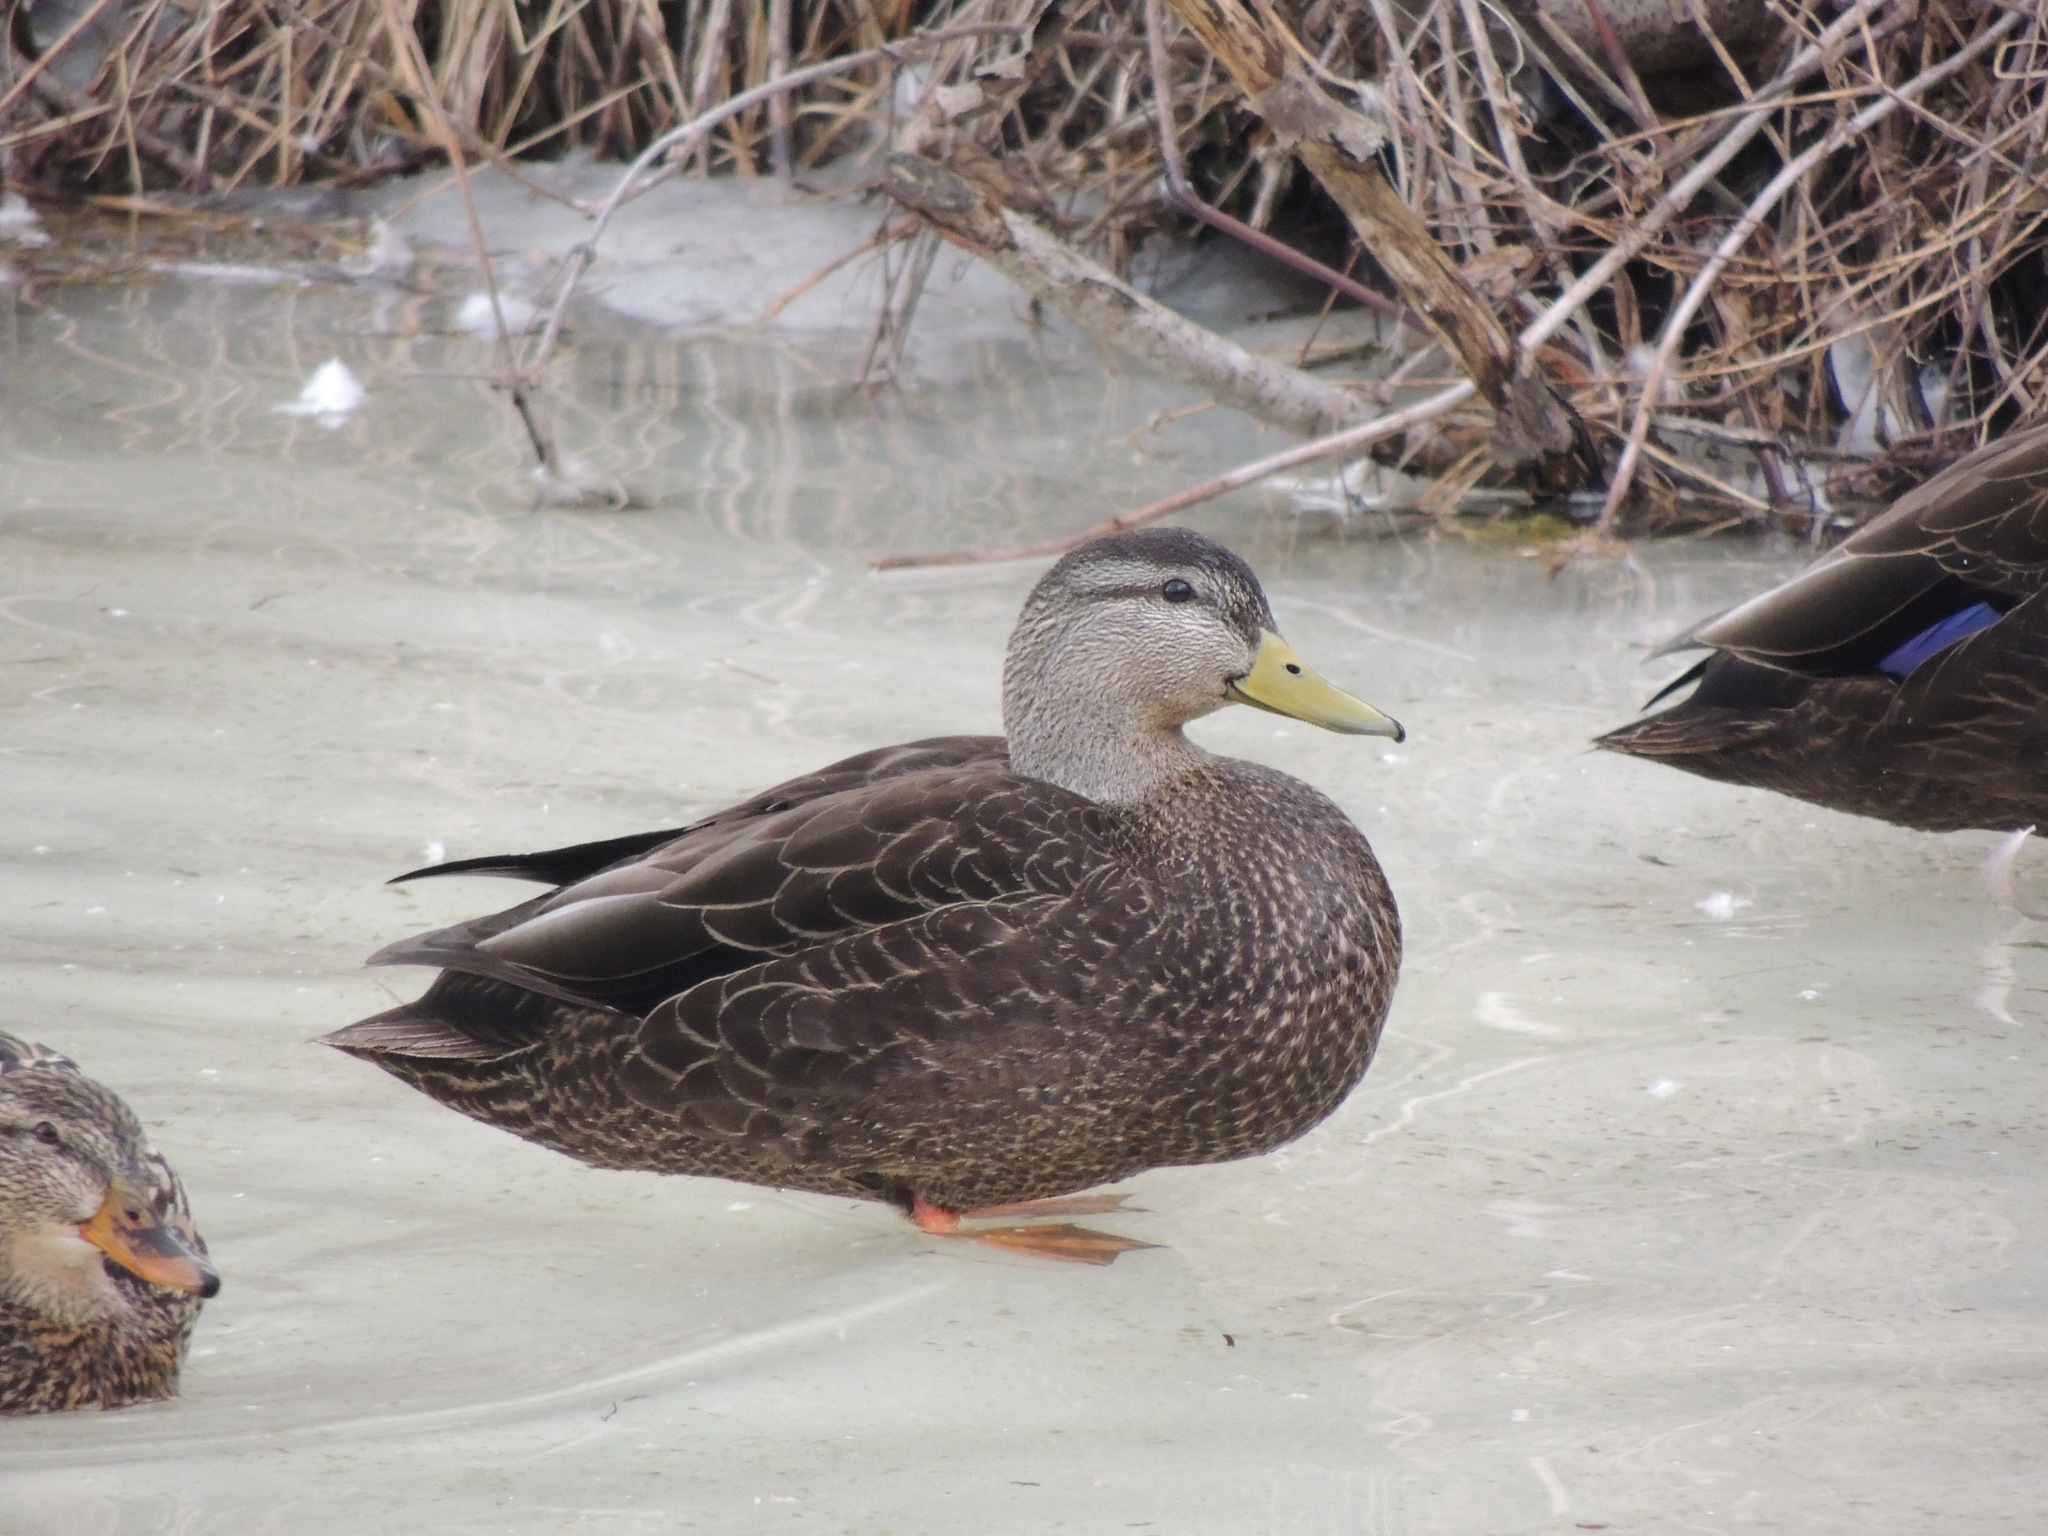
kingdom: Animalia
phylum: Chordata
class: Aves
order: Anseriformes
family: Anatidae
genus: Anas
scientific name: Anas rubripes
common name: American black duck
